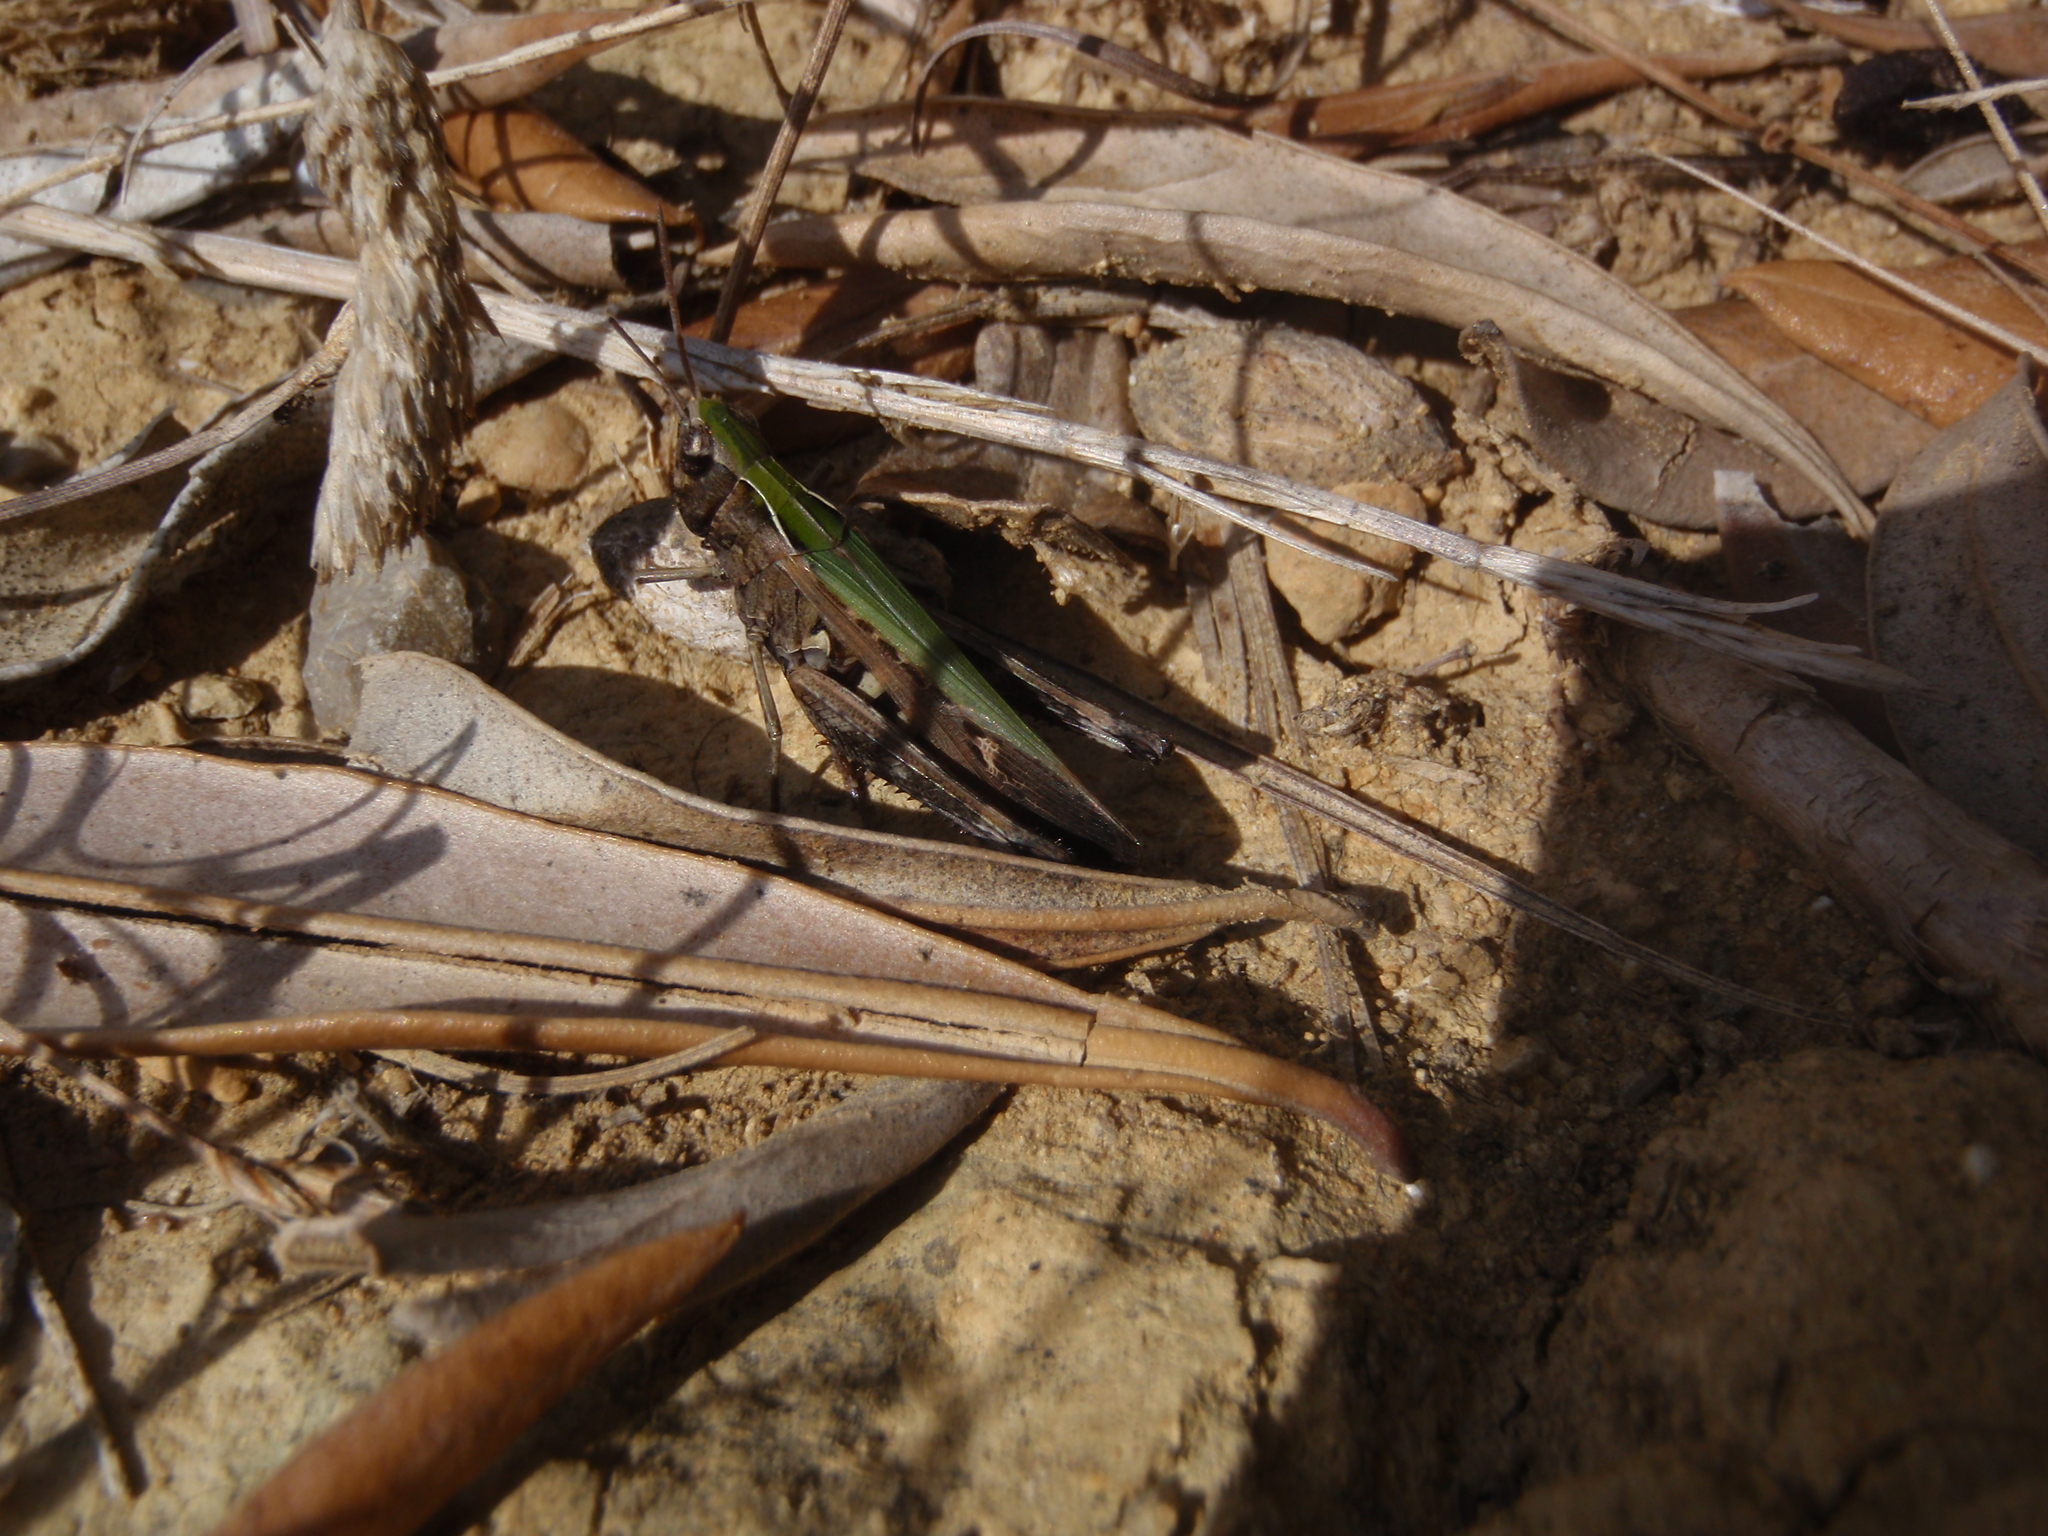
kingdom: Animalia
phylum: Arthropoda
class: Insecta
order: Orthoptera
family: Acrididae
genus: Omocestus
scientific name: Omocestus rufipes
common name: Woodland grasshopper
